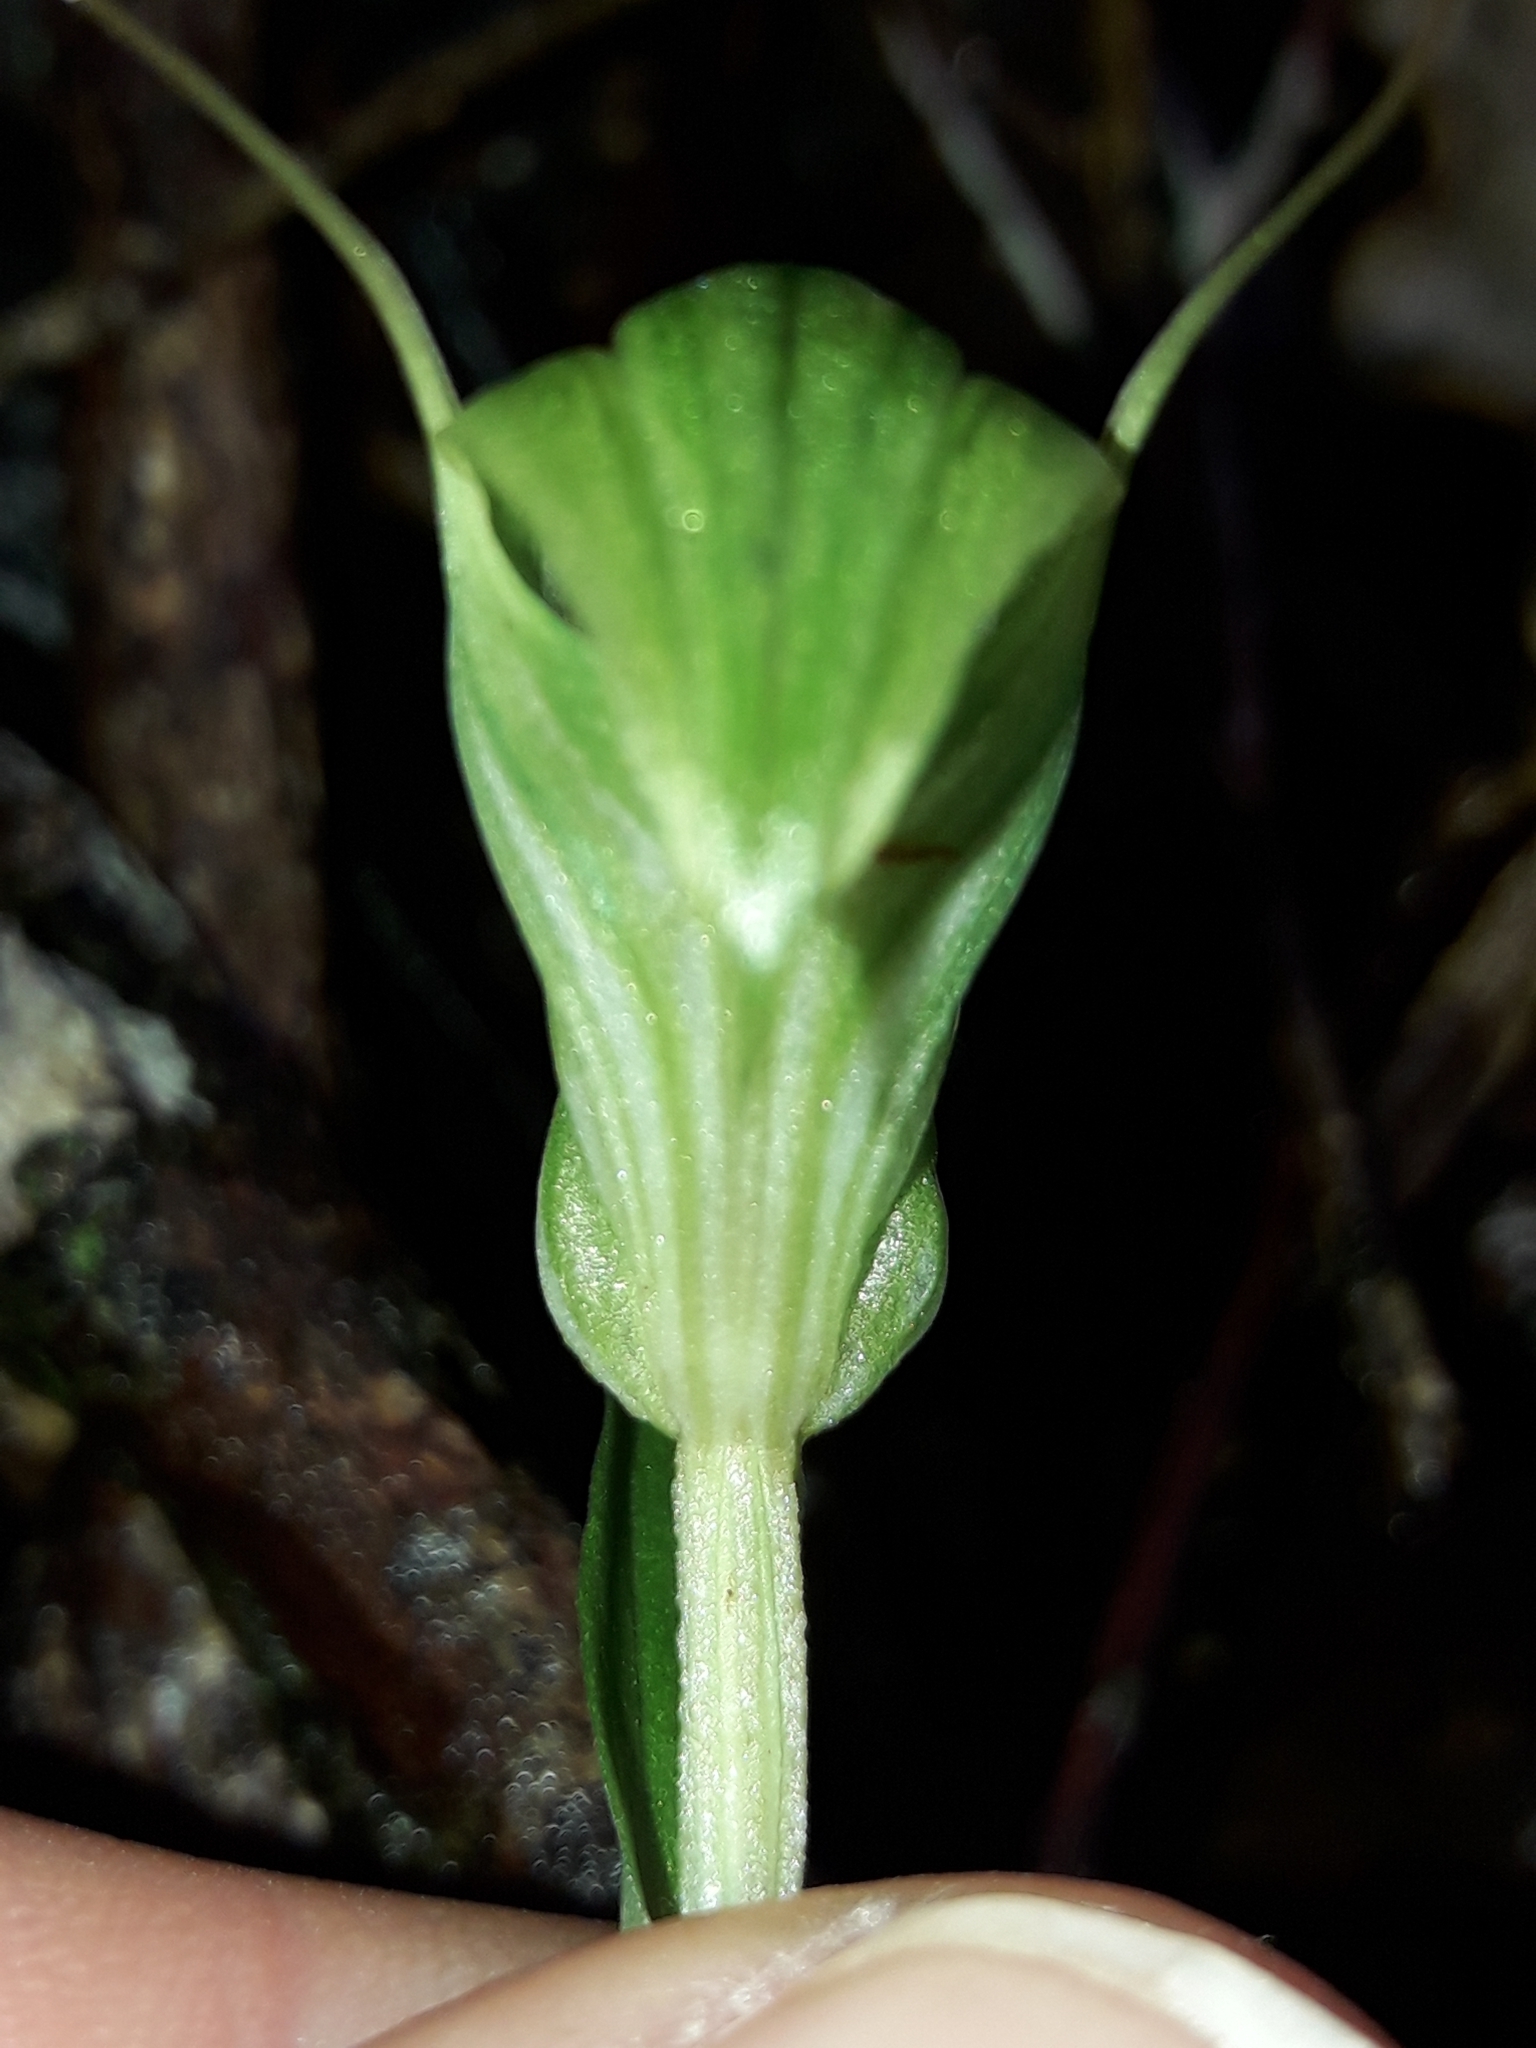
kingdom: Plantae
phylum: Tracheophyta
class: Liliopsida
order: Asparagales
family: Orchidaceae
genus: Pterostylis
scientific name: Pterostylis alobula
